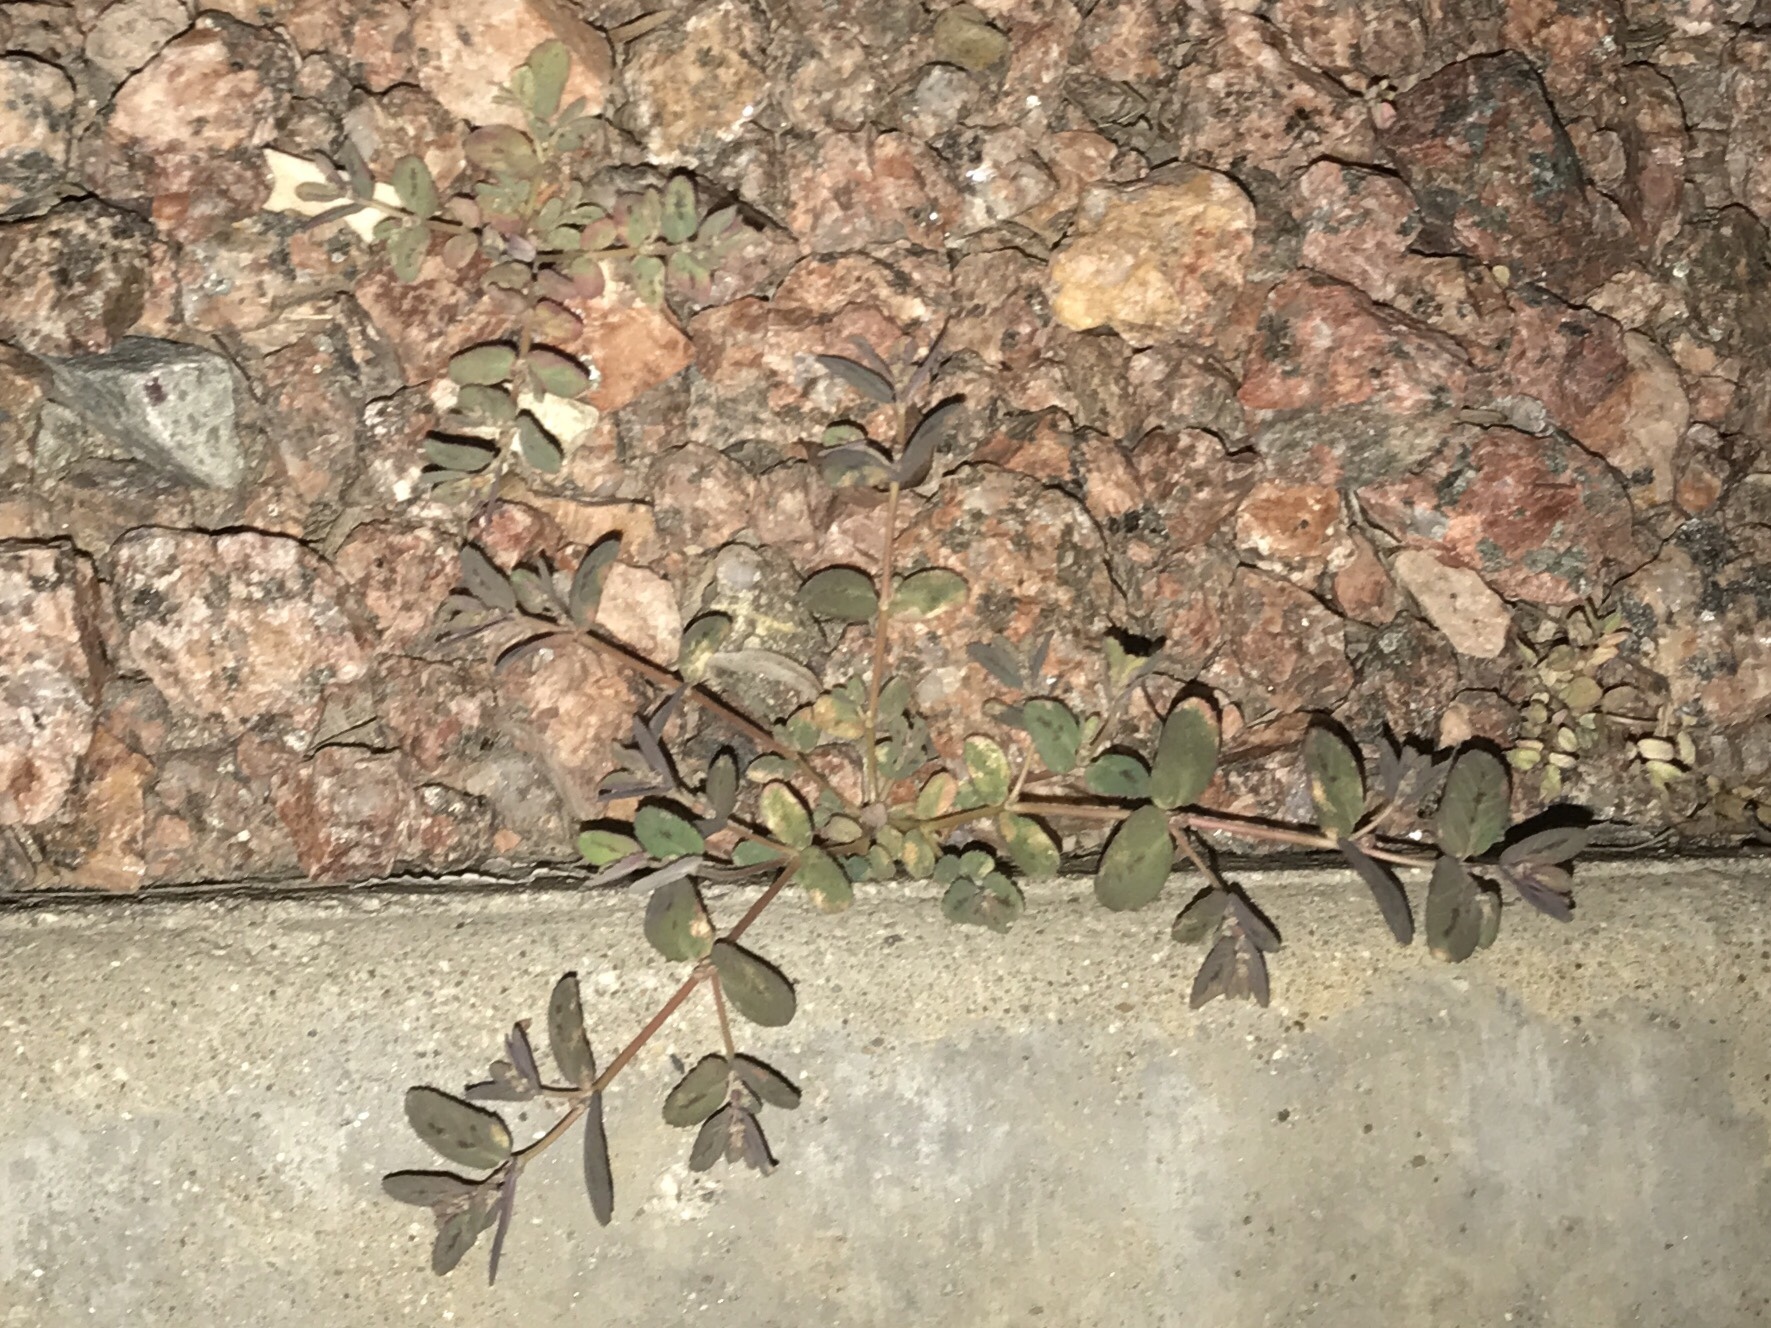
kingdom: Plantae
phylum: Tracheophyta
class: Magnoliopsida
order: Malpighiales
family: Euphorbiaceae
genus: Euphorbia
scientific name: Euphorbia abramsiana
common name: Abram's spurge
